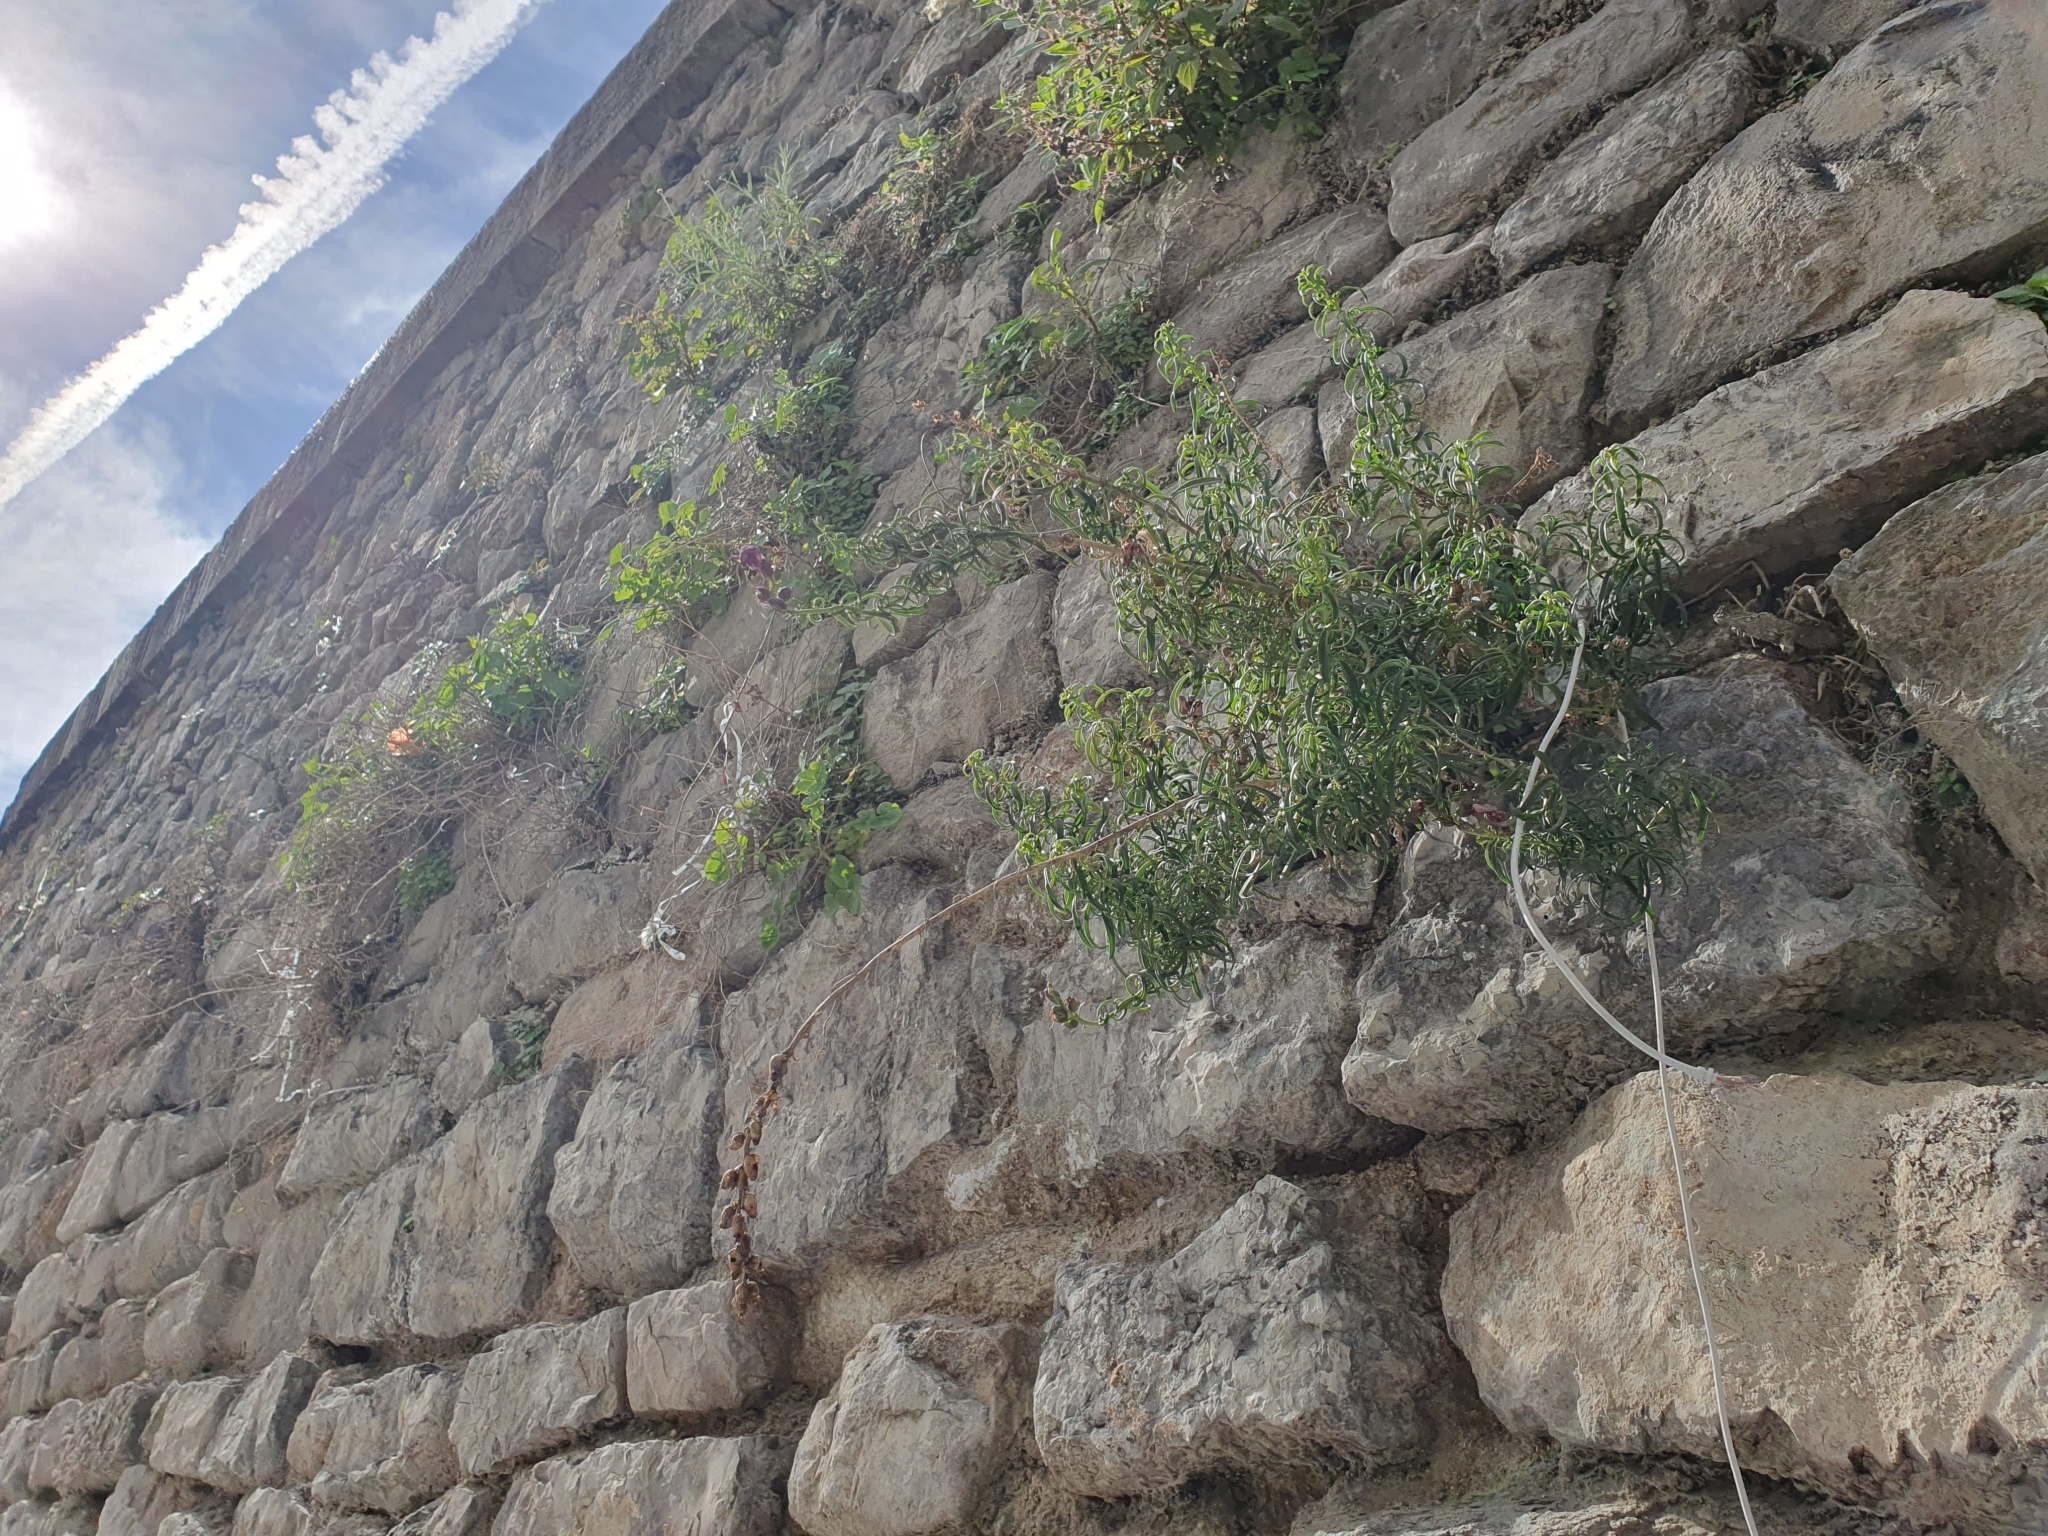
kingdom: Plantae
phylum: Tracheophyta
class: Magnoliopsida
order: Lamiales
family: Plantaginaceae
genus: Antirrhinum
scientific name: Antirrhinum tortuosum
